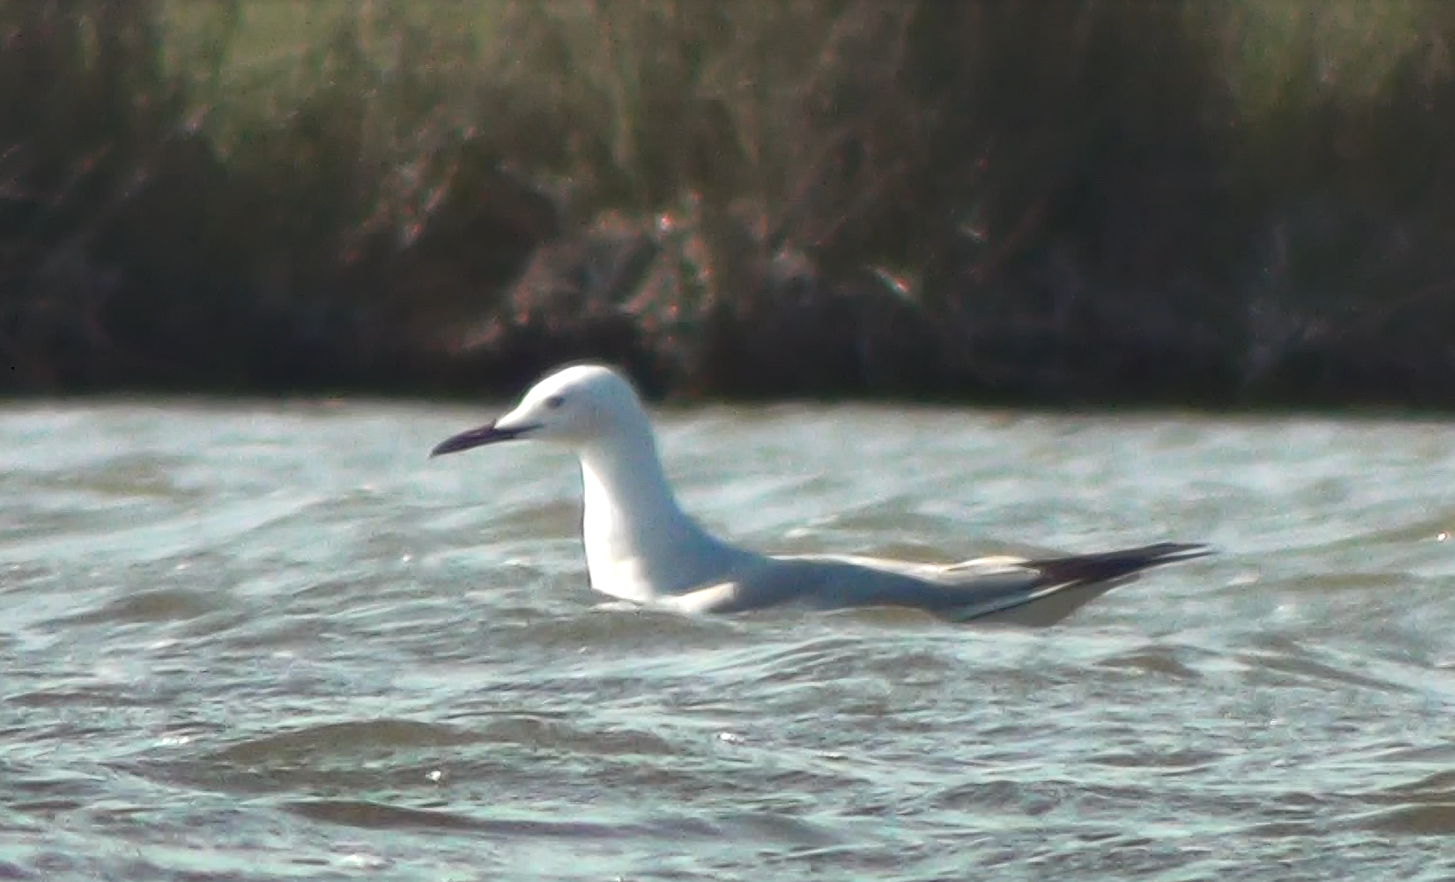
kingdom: Animalia
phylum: Chordata
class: Aves
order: Charadriiformes
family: Laridae
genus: Chroicocephalus
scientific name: Chroicocephalus genei
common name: Slender-billed gull
